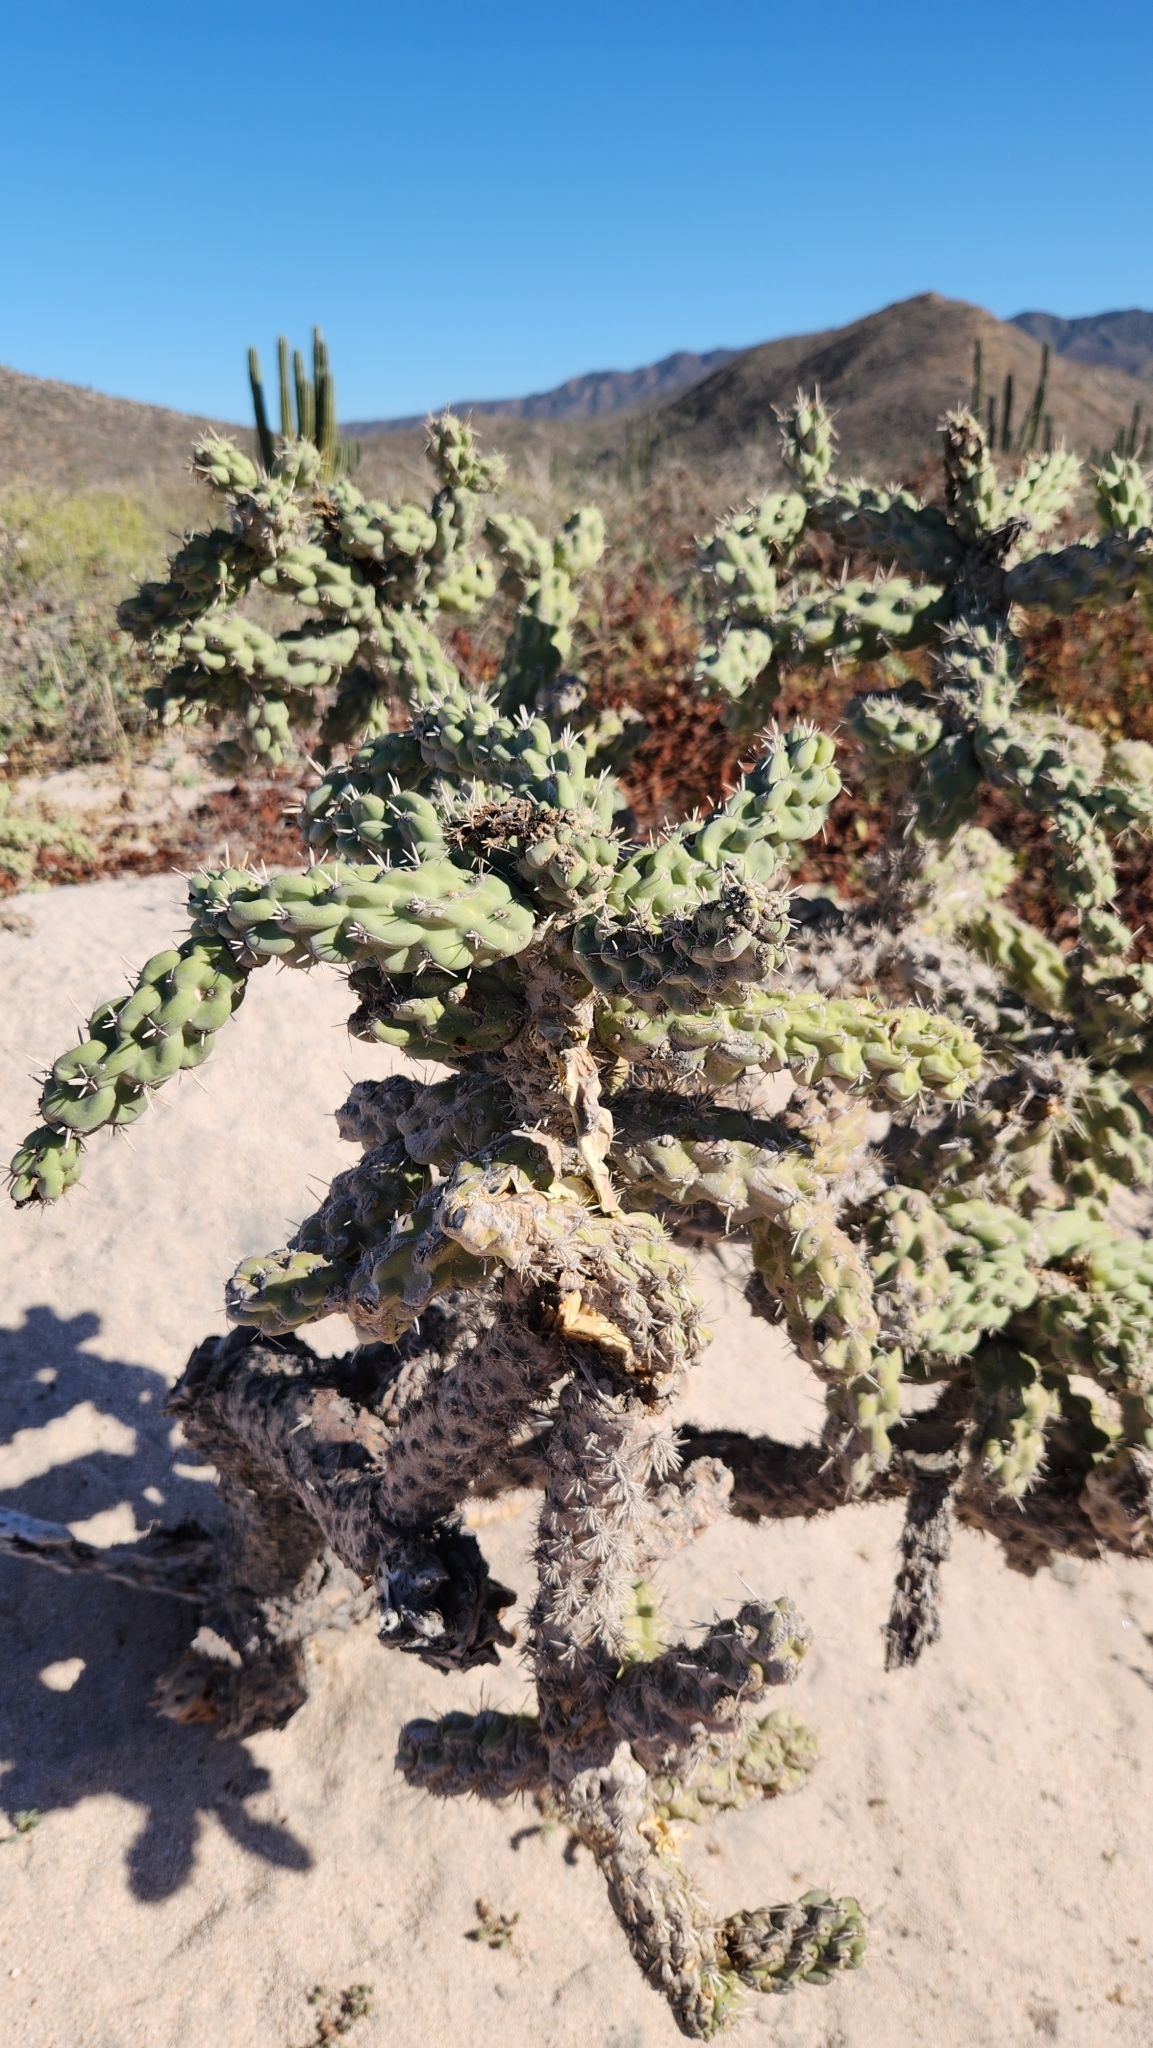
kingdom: Plantae
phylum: Tracheophyta
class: Magnoliopsida
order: Caryophyllales
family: Cactaceae
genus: Cylindropuntia
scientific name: Cylindropuntia cholla
